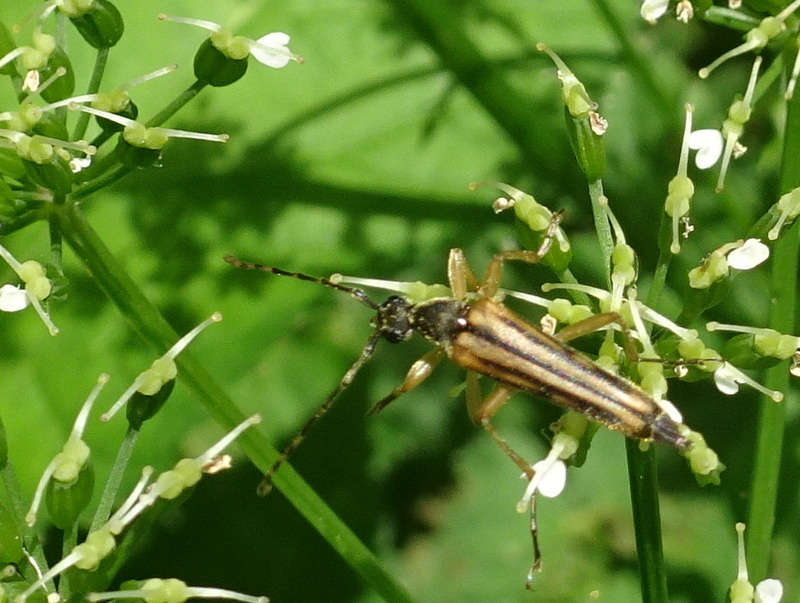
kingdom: Animalia
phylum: Arthropoda
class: Insecta
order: Coleoptera
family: Cerambycidae
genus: Analeptura
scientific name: Analeptura lineola
